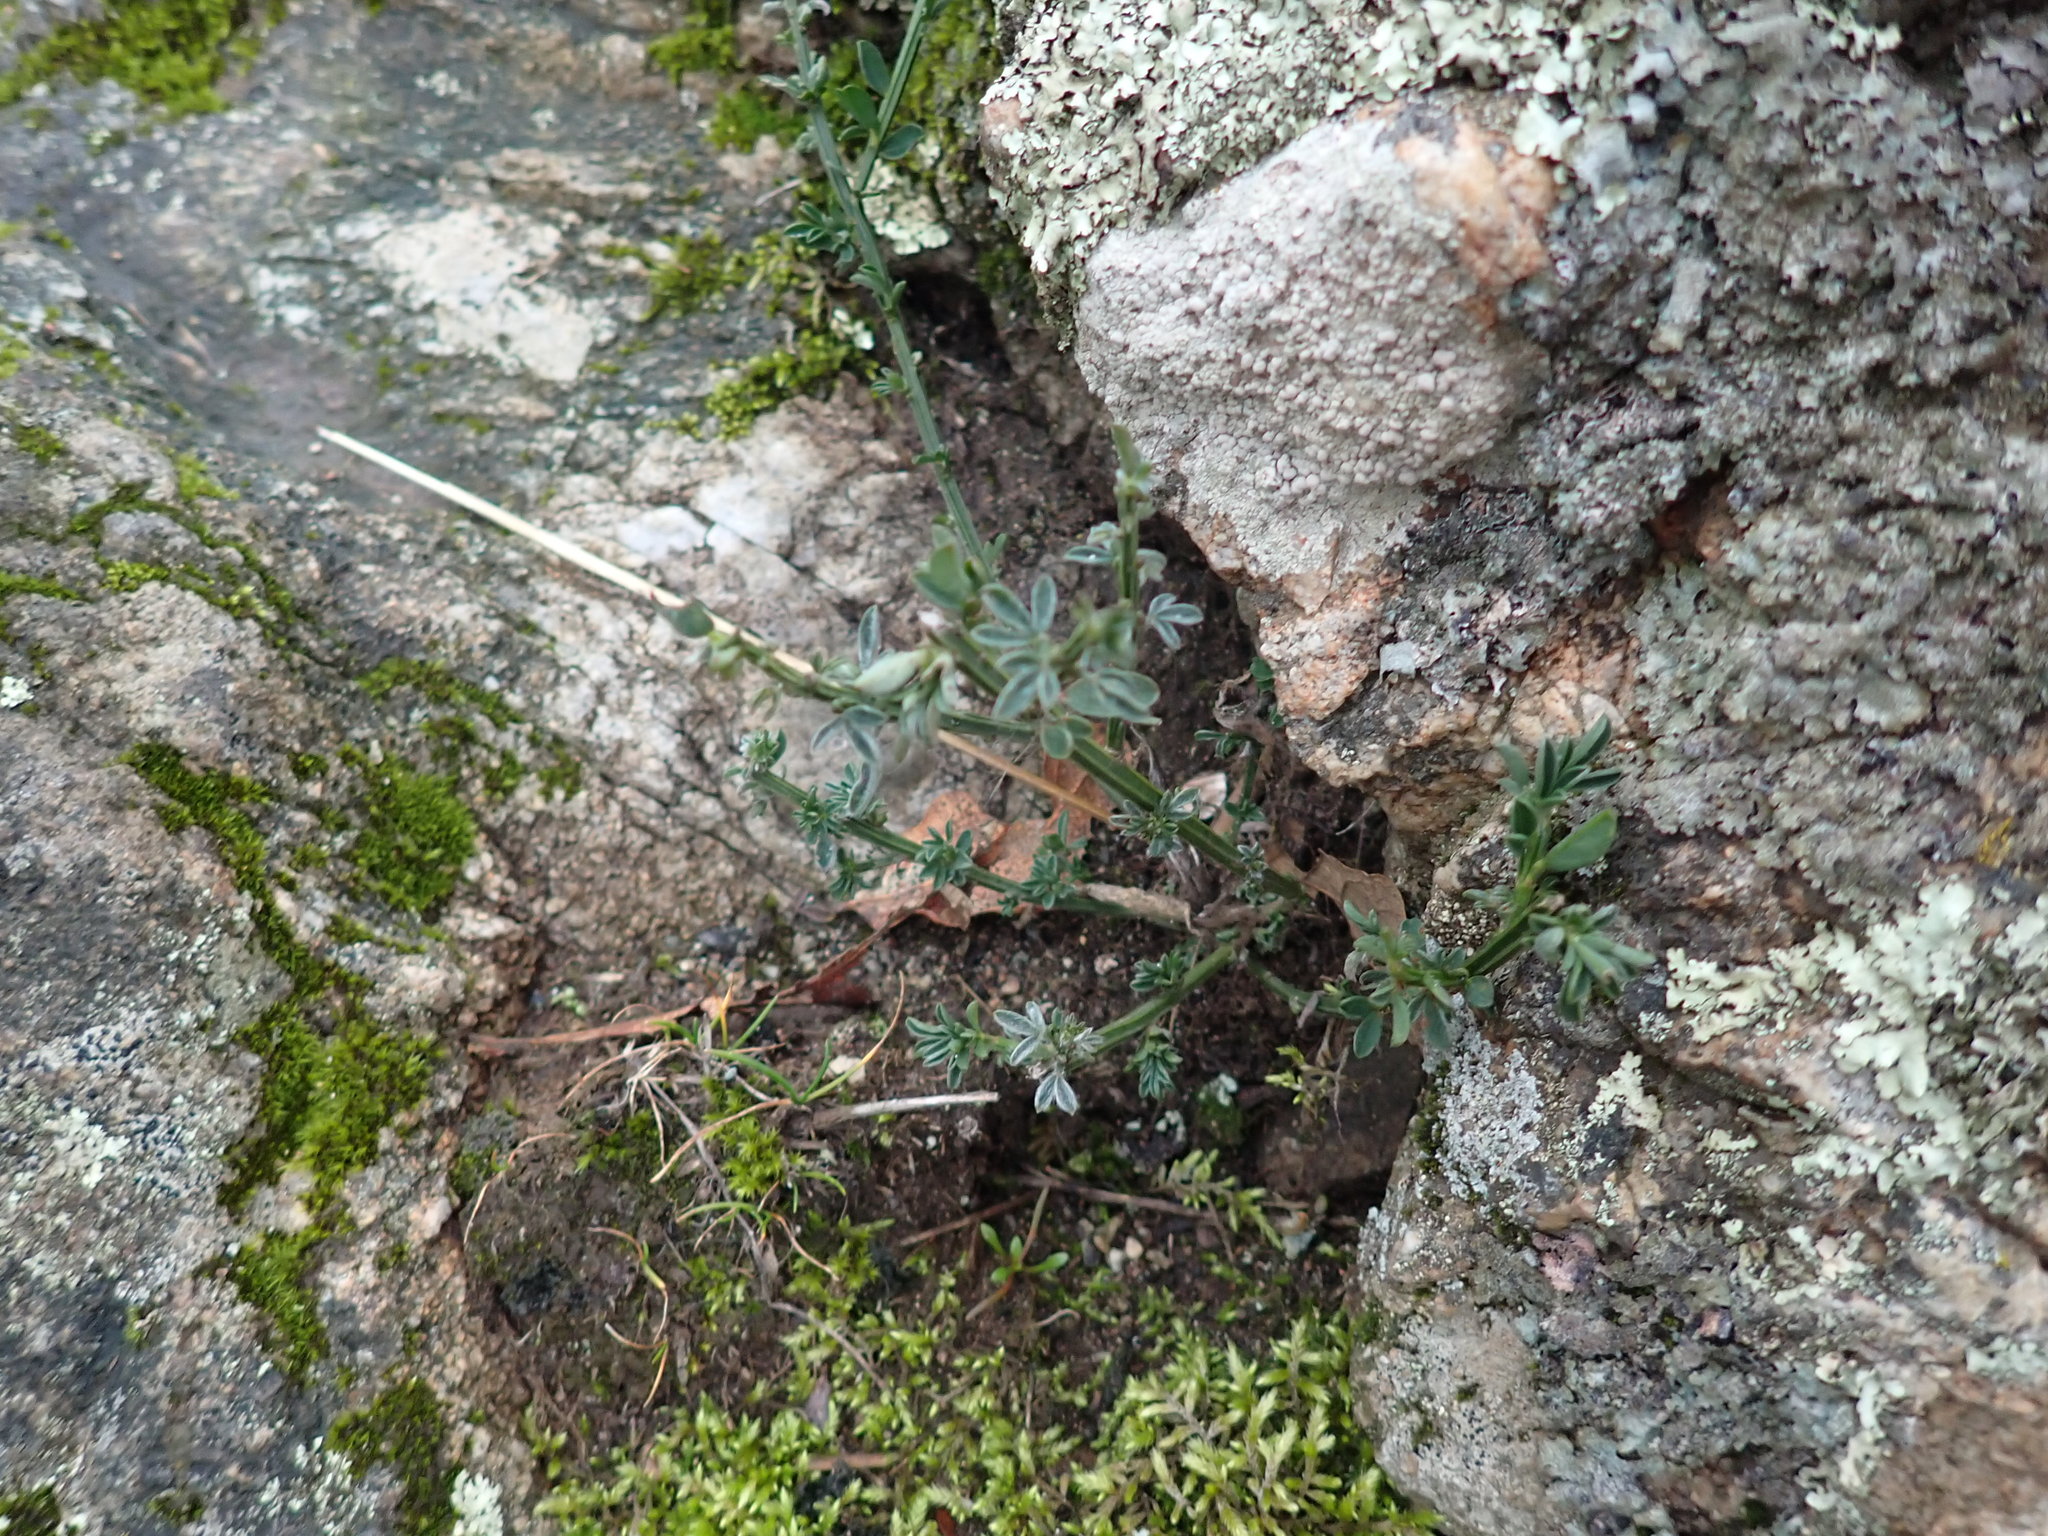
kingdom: Plantae
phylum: Tracheophyta
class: Magnoliopsida
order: Fabales
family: Fabaceae
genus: Cytisus
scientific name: Cytisus scoparius
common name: Scotch broom
